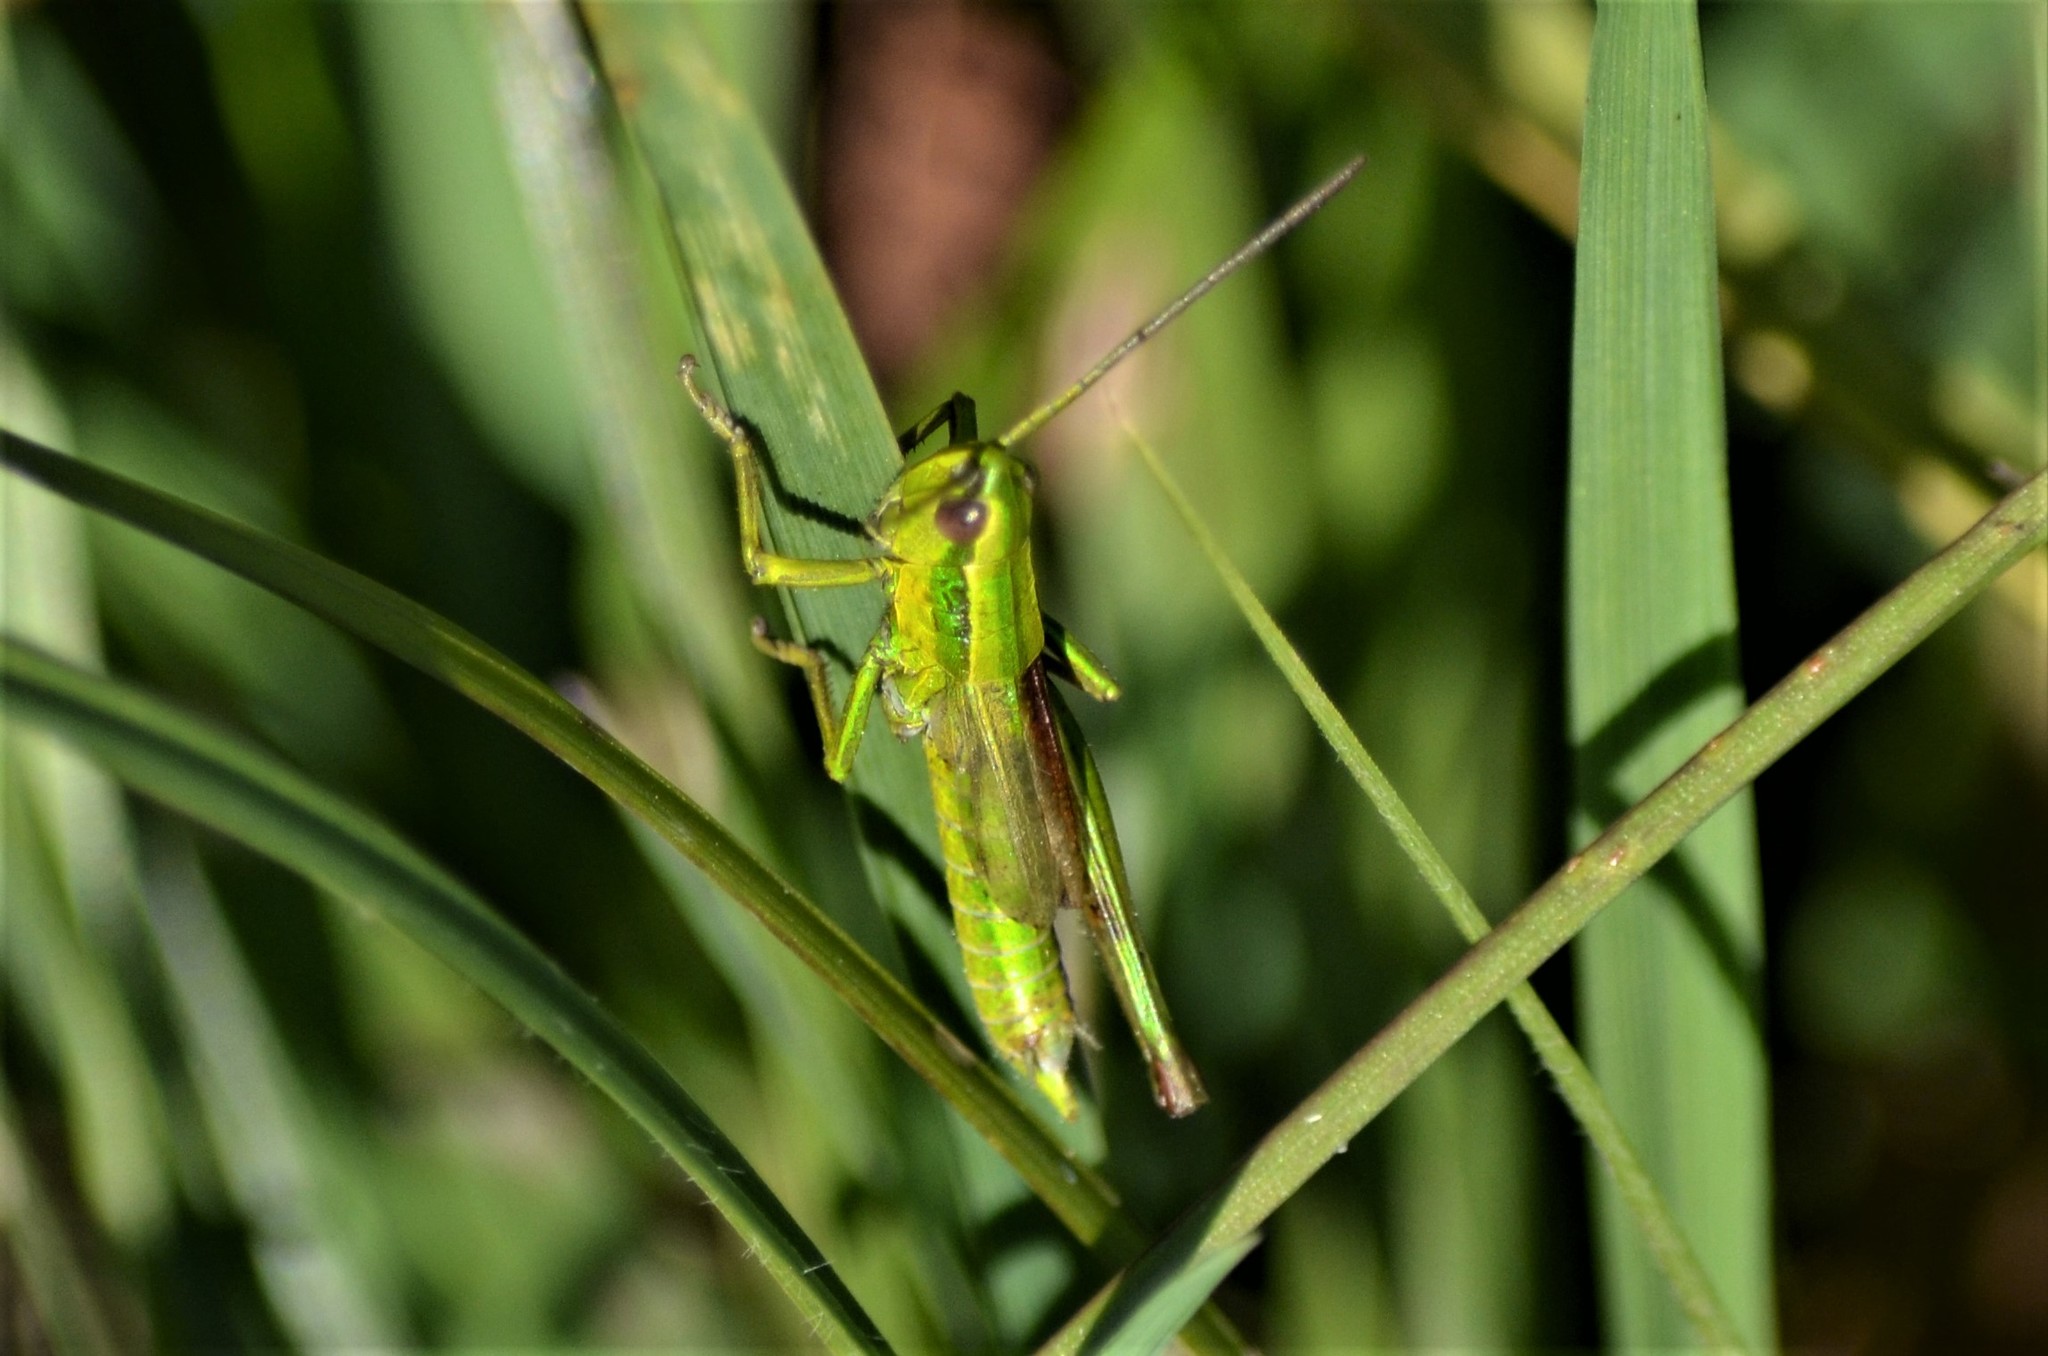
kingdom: Animalia
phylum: Arthropoda
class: Insecta
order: Orthoptera
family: Acrididae
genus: Euthystira
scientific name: Euthystira brachyptera
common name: Small gold grasshopper
